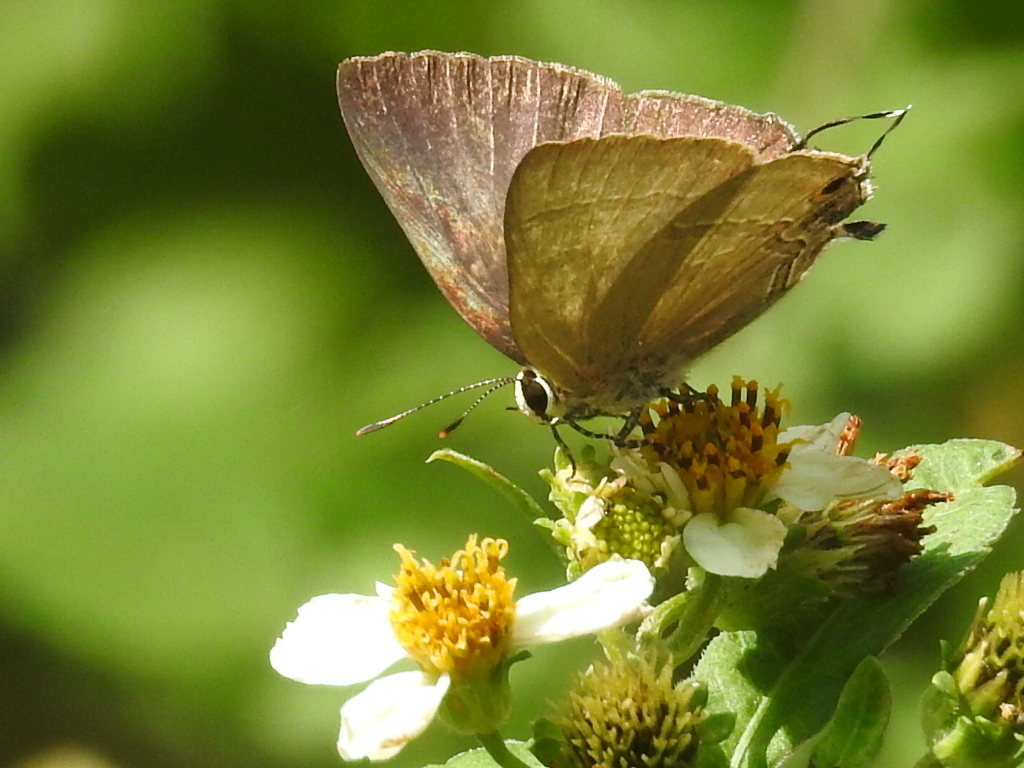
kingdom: Animalia
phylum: Arthropoda
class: Insecta
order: Lepidoptera
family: Lycaenidae
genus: Rapala
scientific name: Rapala manea
